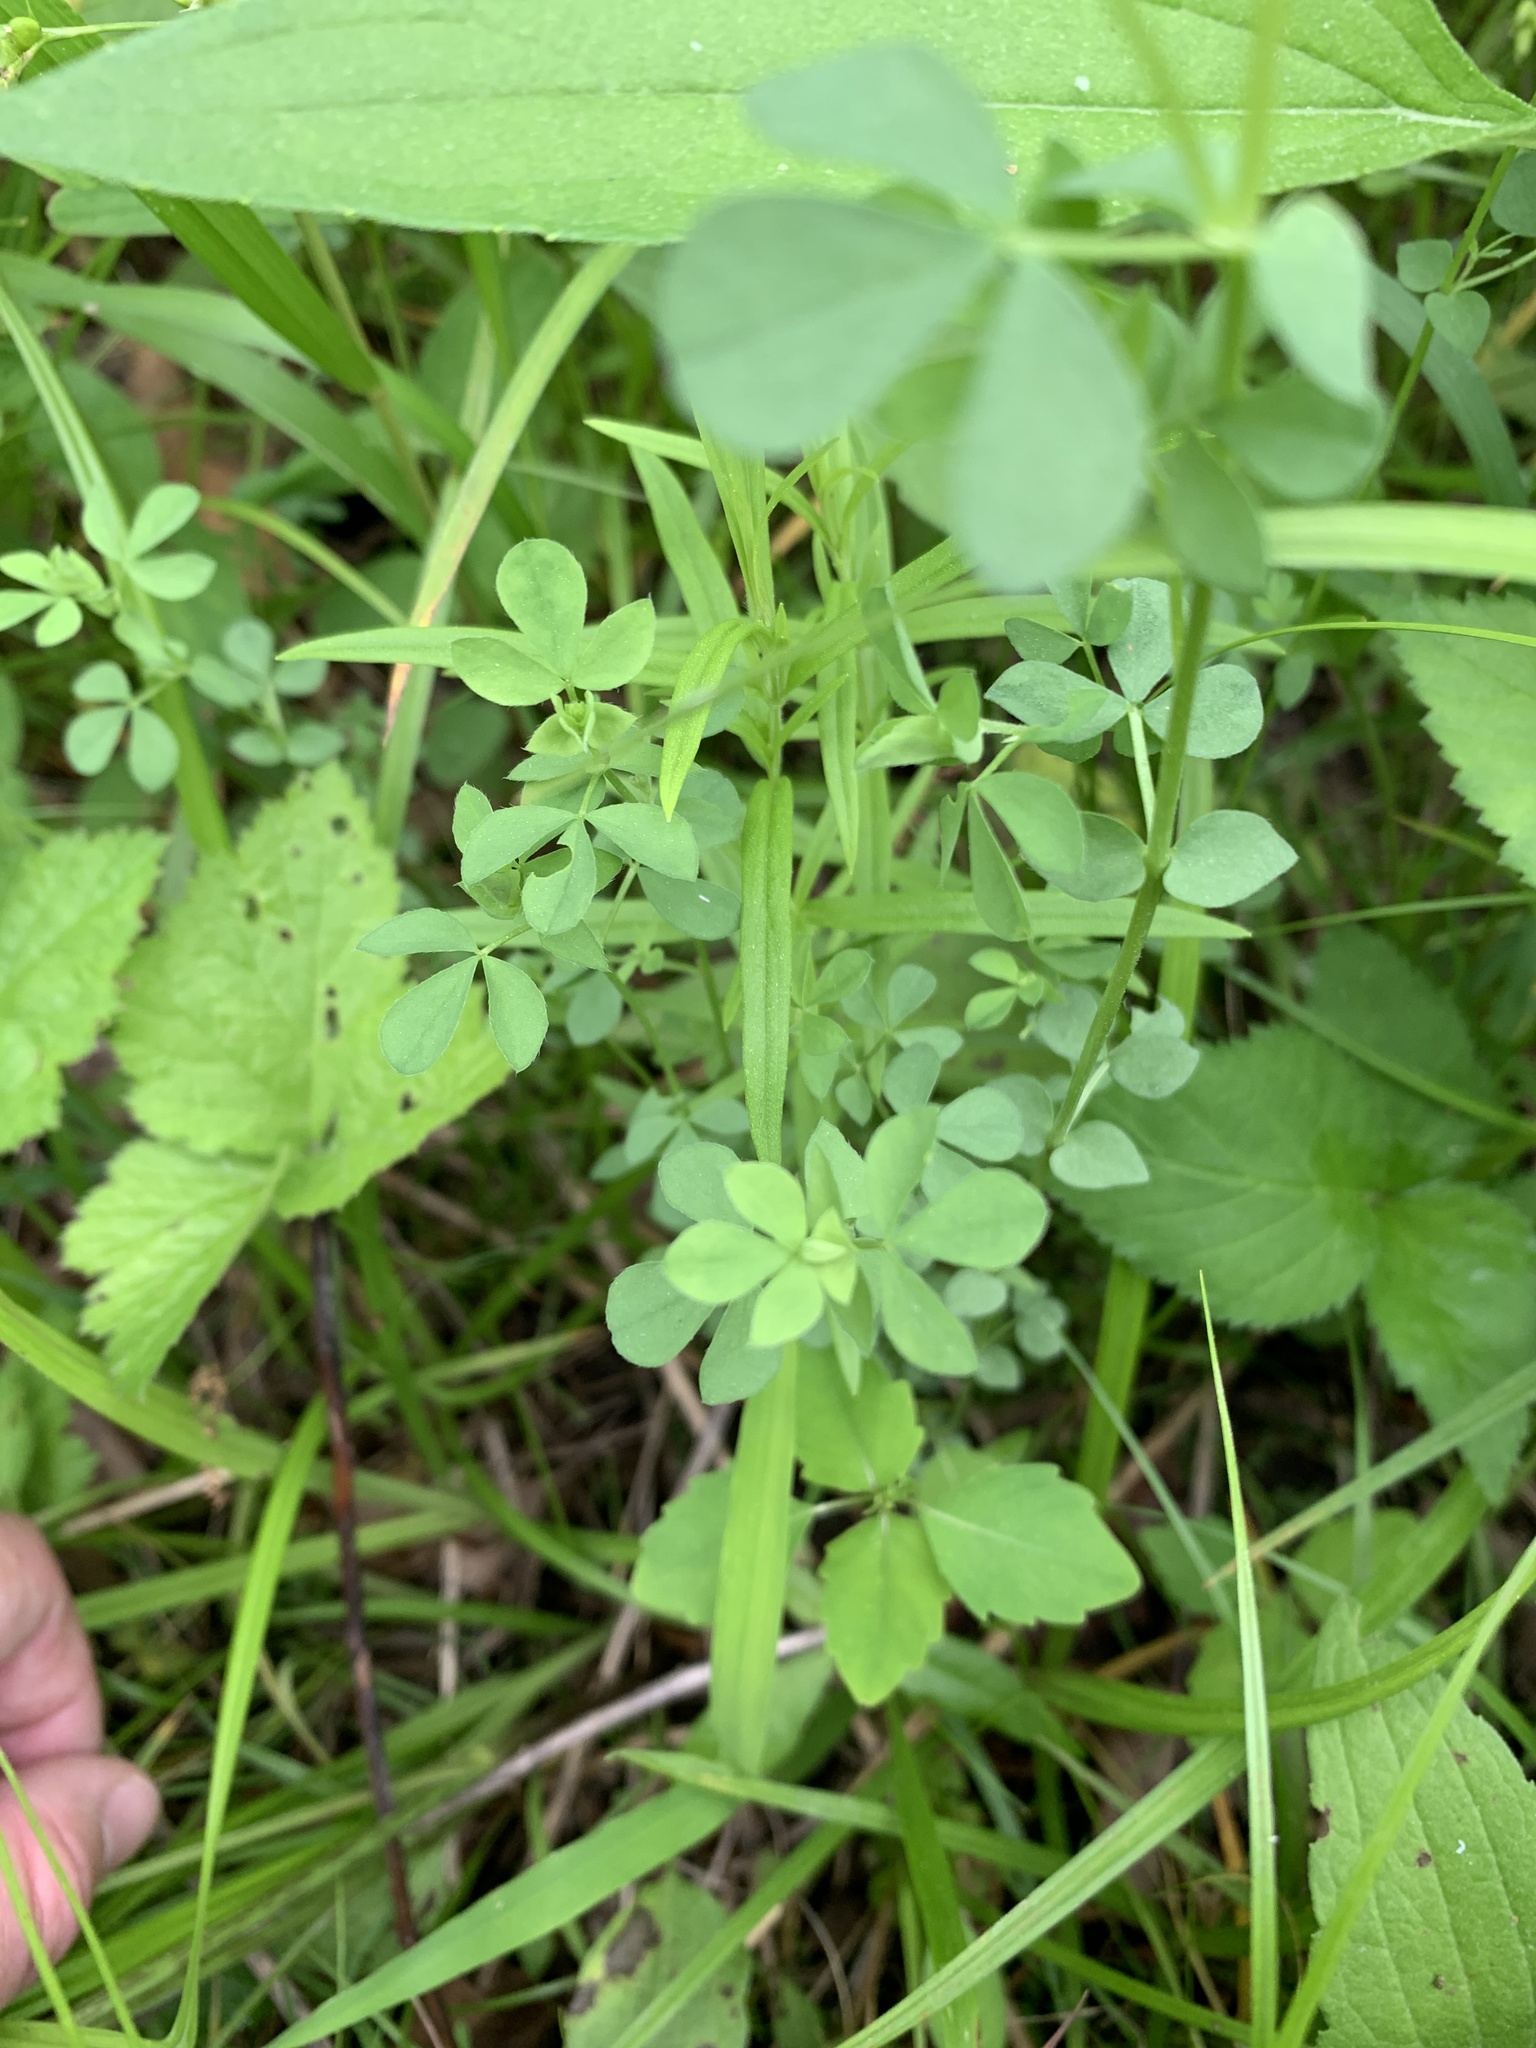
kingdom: Plantae
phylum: Tracheophyta
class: Magnoliopsida
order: Fabales
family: Fabaceae
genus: Lotus
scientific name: Lotus corniculatus
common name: Common bird's-foot-trefoil
